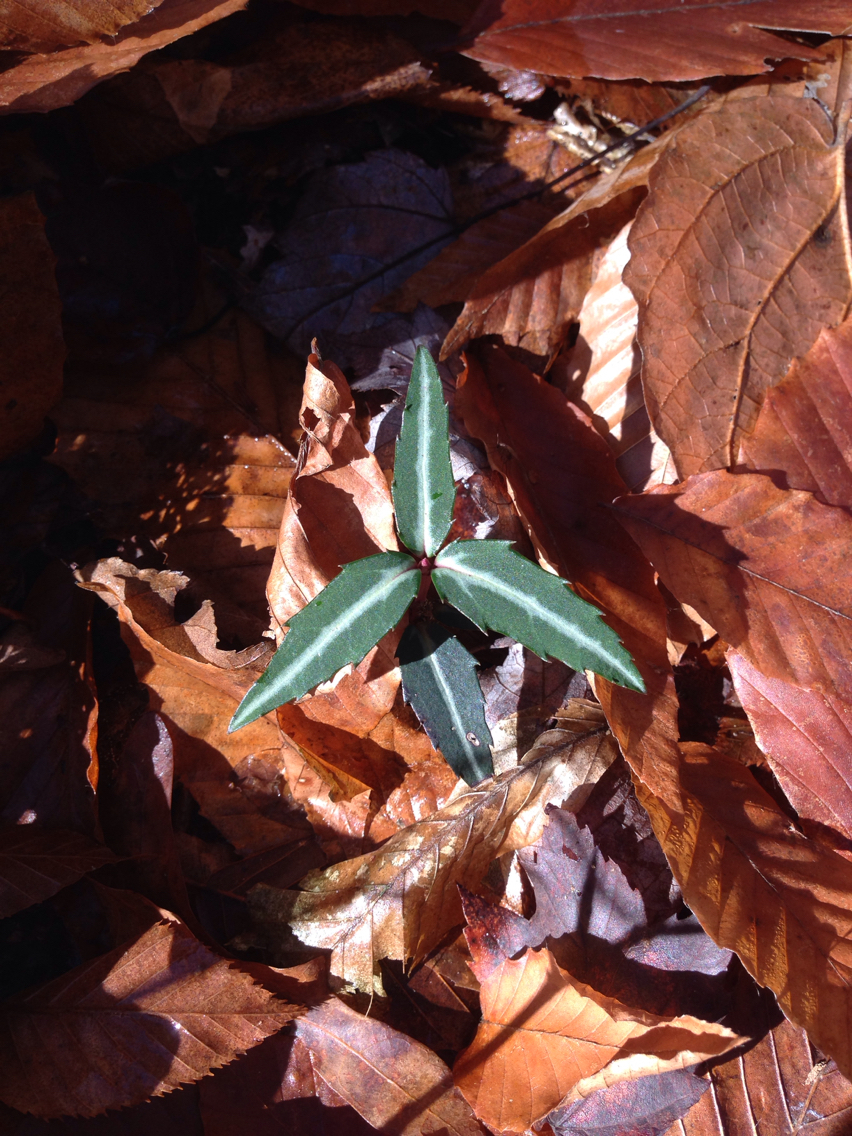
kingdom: Plantae
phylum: Tracheophyta
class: Magnoliopsida
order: Ericales
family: Ericaceae
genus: Chimaphila
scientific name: Chimaphila maculata
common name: Spotted pipsissewa
